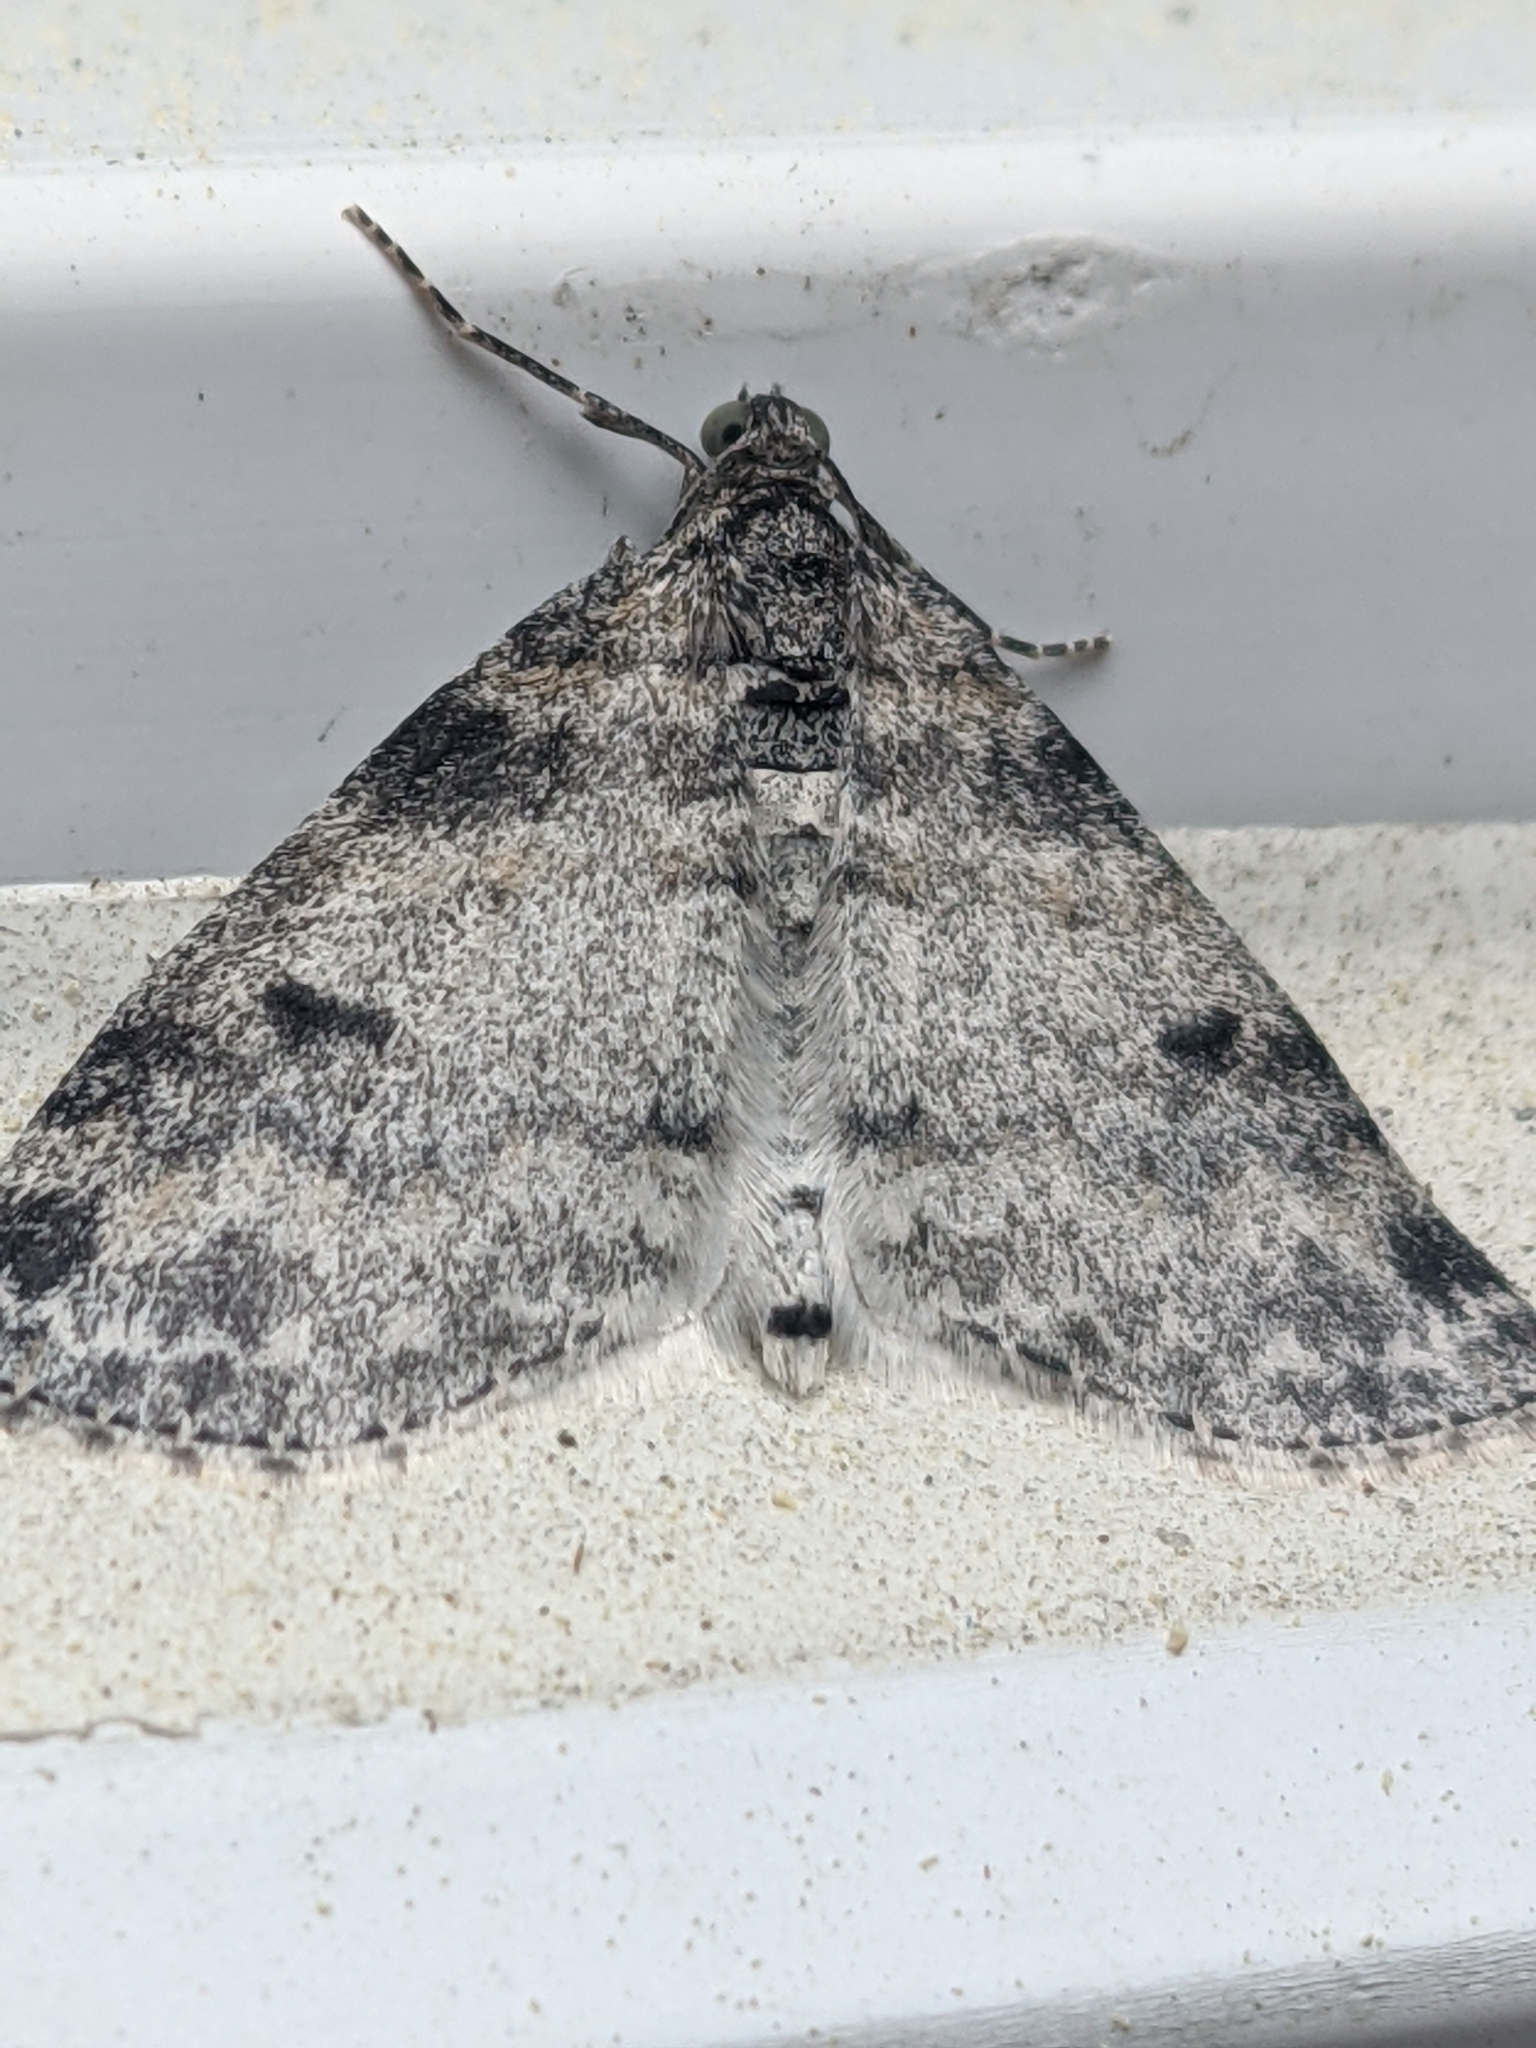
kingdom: Animalia
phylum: Arthropoda
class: Insecta
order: Lepidoptera
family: Geometridae
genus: Lobophora
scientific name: Lobophora nivigerata
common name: Powdered bigwing
